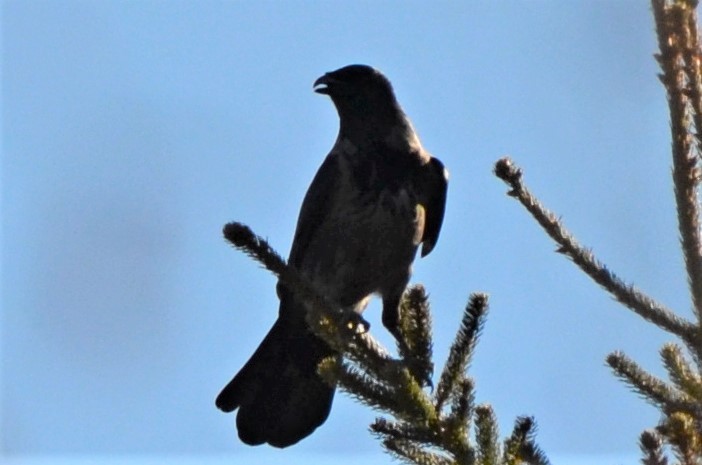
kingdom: Animalia
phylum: Chordata
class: Aves
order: Passeriformes
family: Corvidae
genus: Corvus
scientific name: Corvus cornix
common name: Hooded crow
